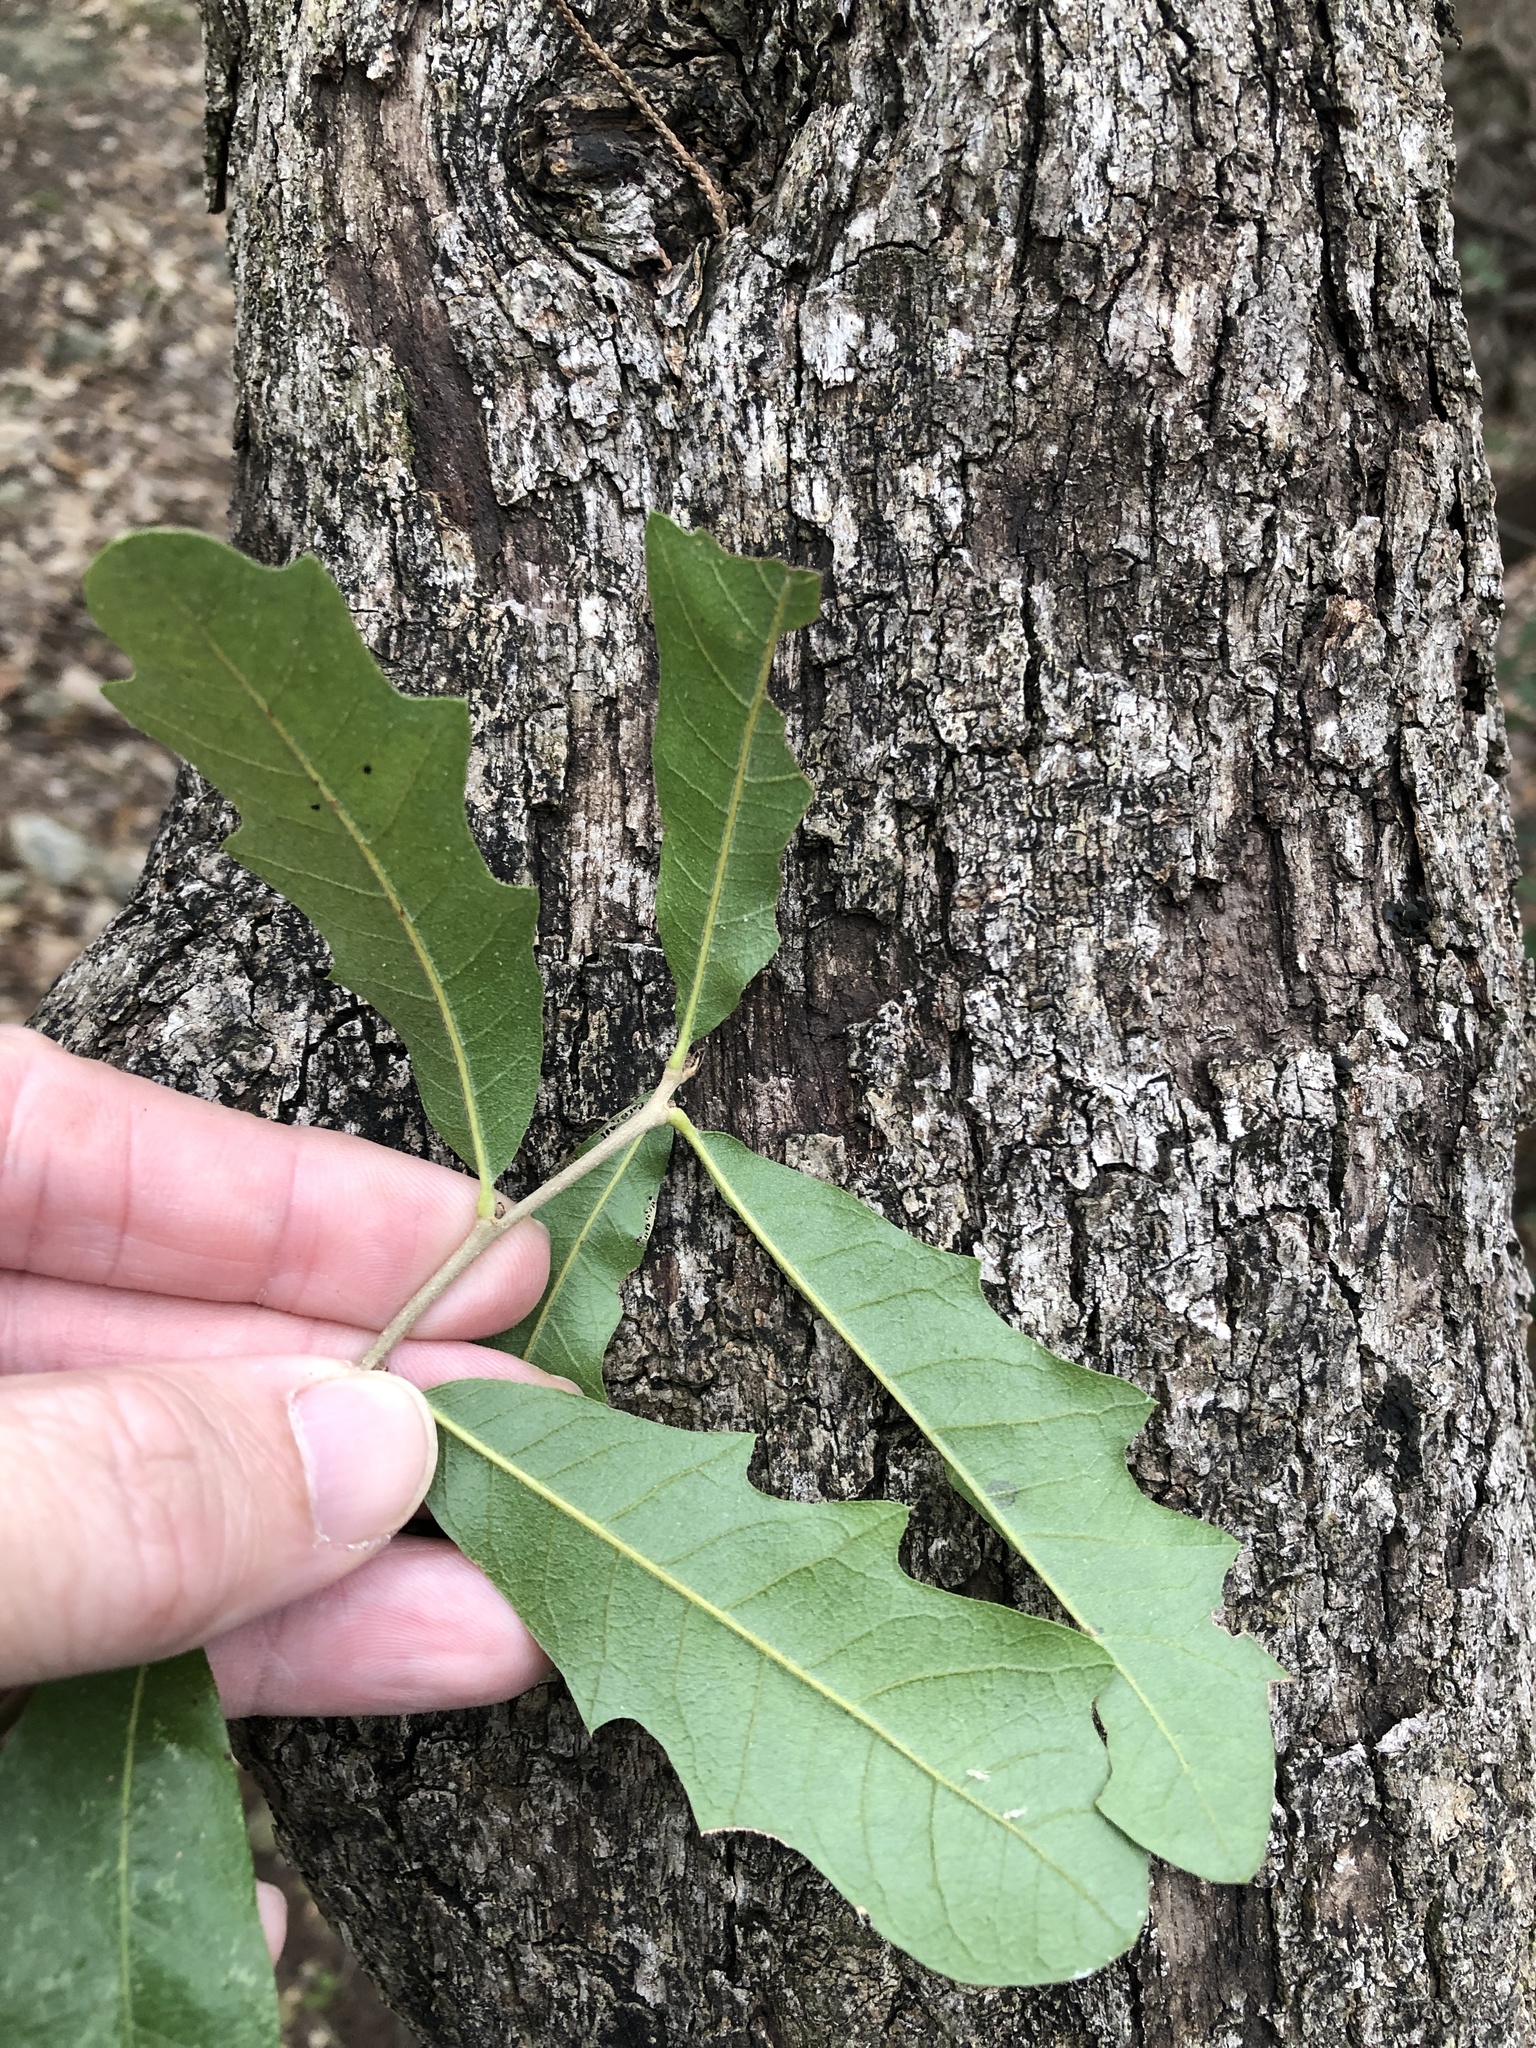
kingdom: Plantae
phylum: Tracheophyta
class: Magnoliopsida
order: Fagales
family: Fagaceae
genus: Quercus
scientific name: Quercus sinuata
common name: Durand oak
